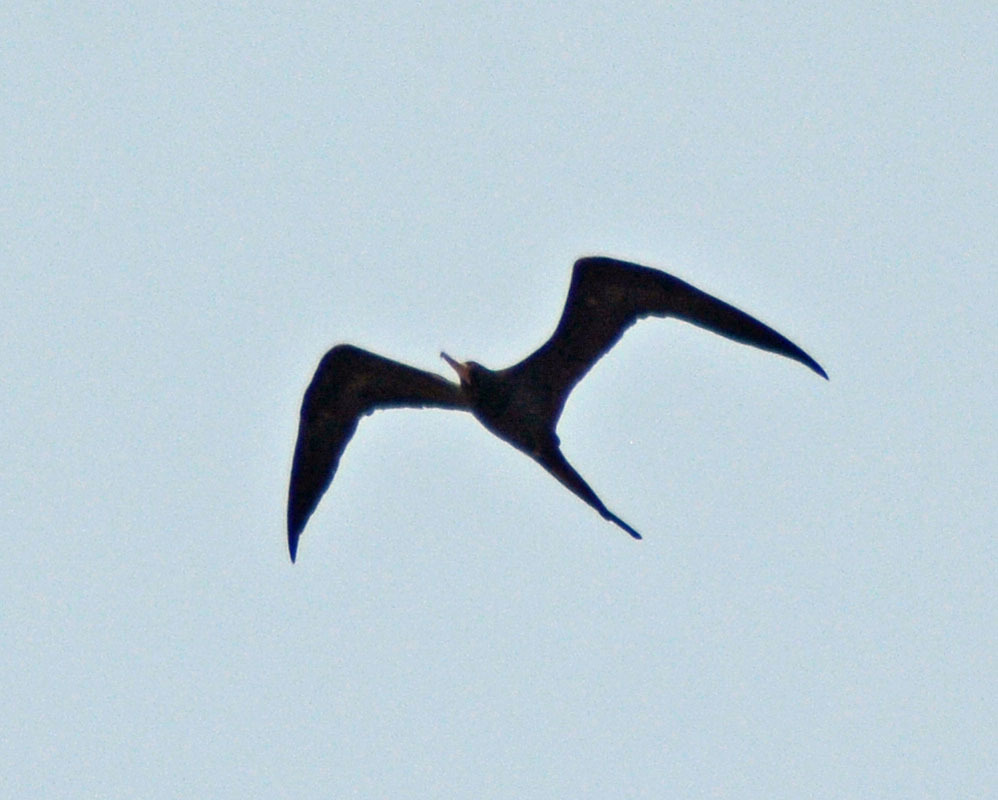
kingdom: Animalia
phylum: Chordata
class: Aves
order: Suliformes
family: Fregatidae
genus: Fregata
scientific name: Fregata magnificens
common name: Magnificent frigatebird
